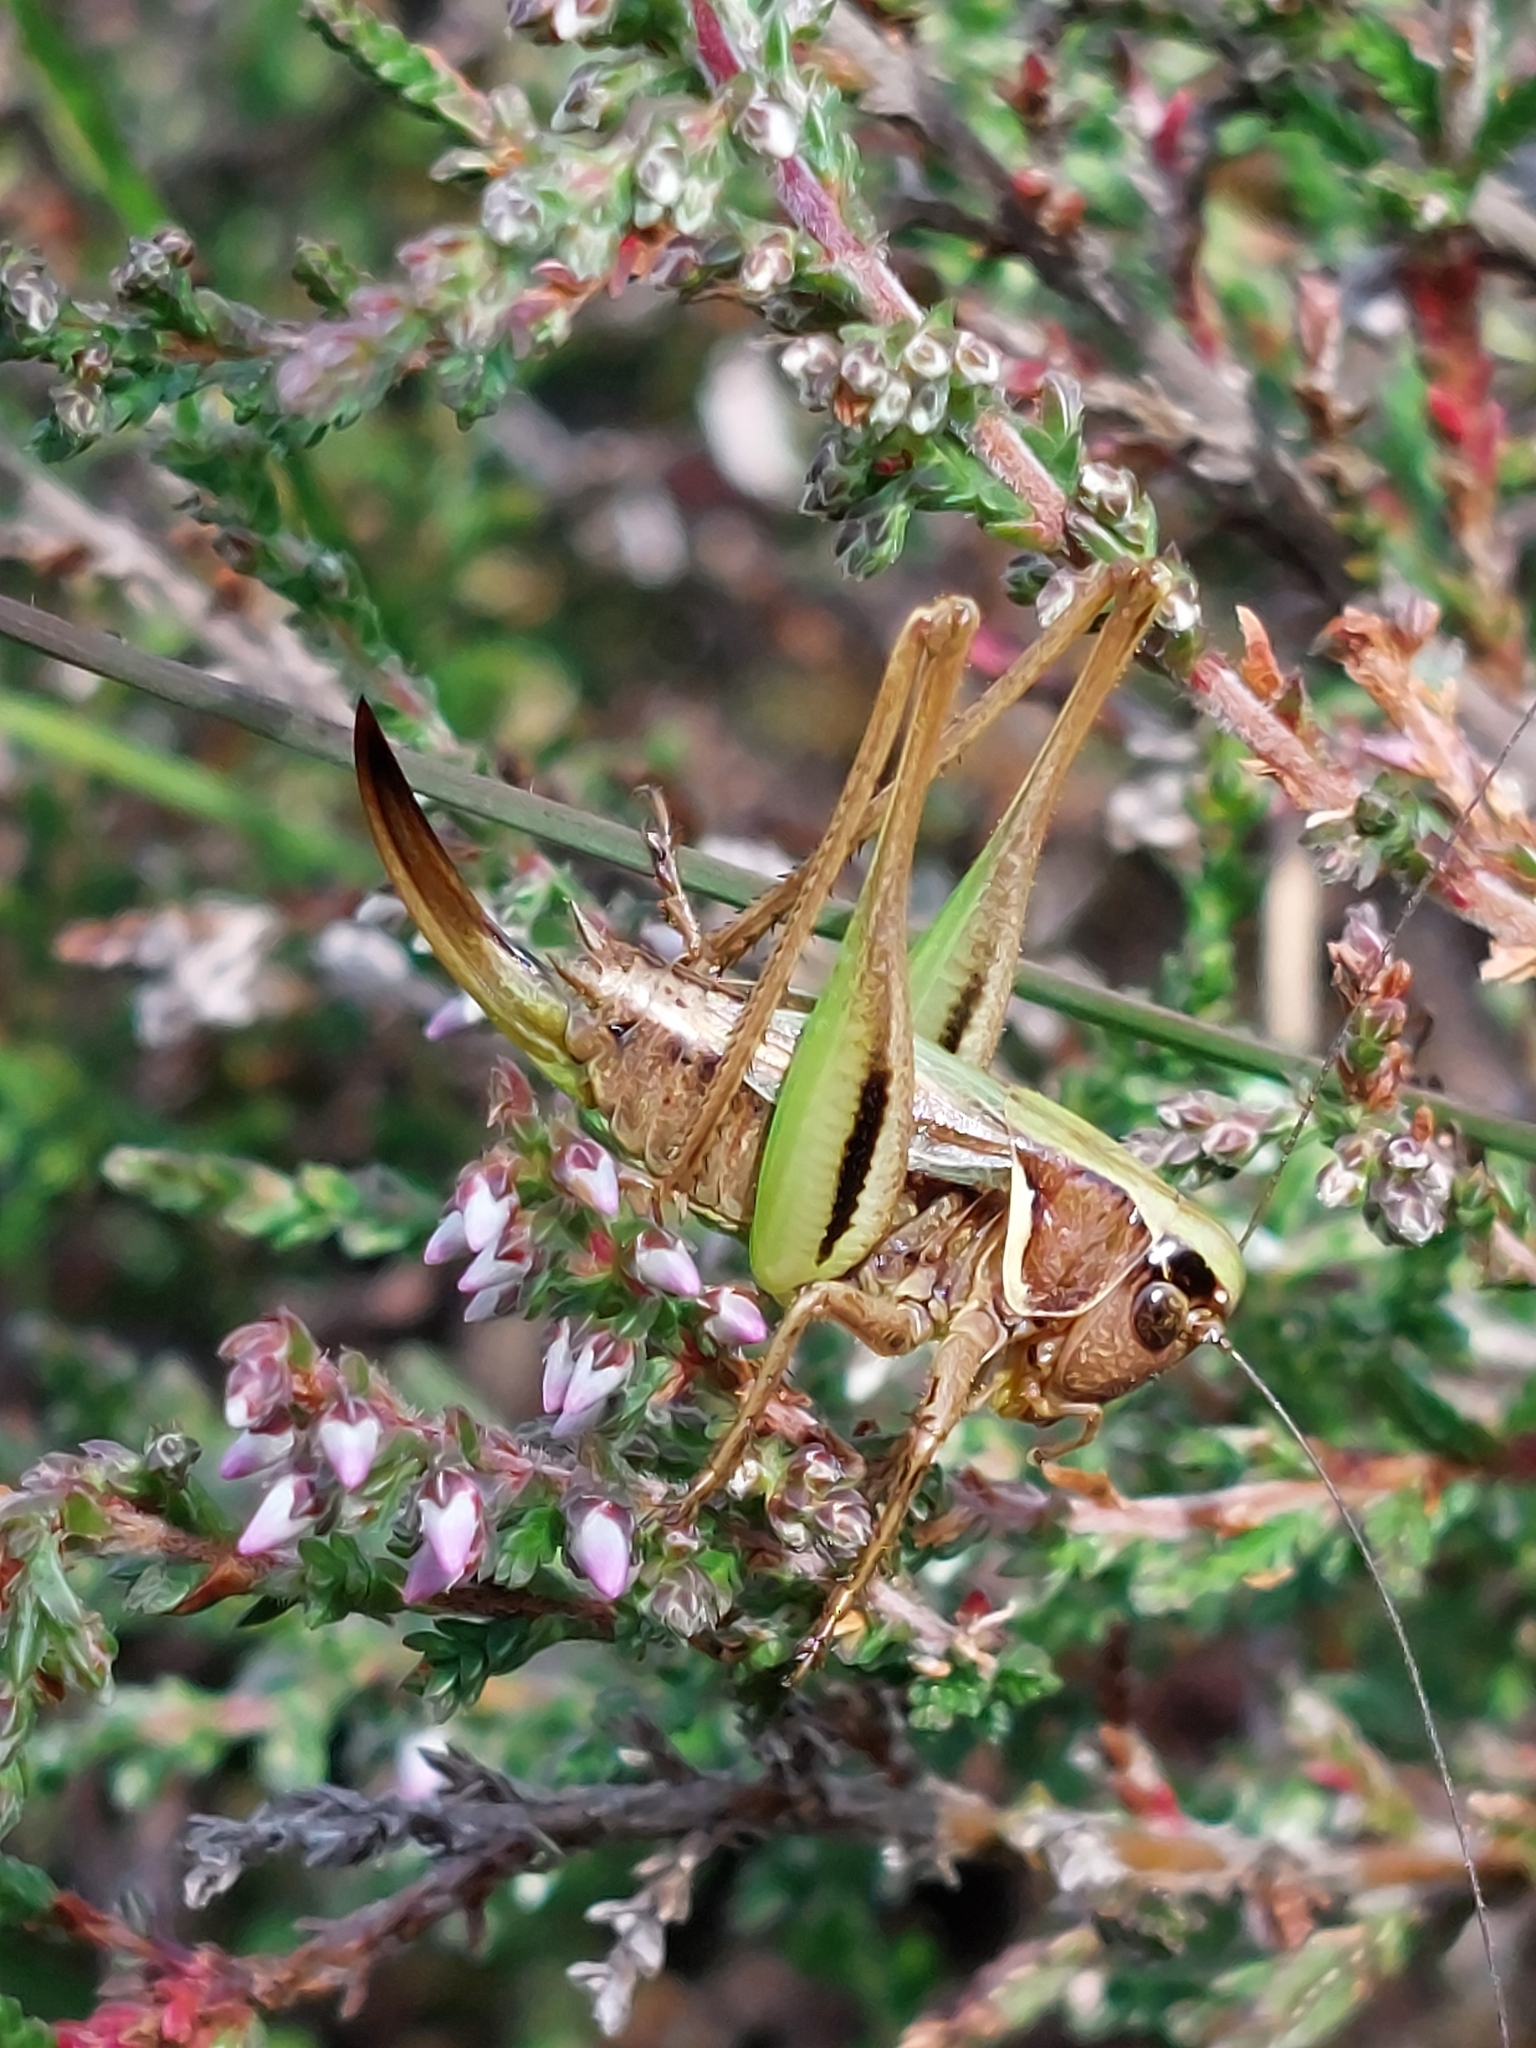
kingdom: Animalia
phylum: Arthropoda
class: Insecta
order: Orthoptera
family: Tettigoniidae
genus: Metrioptera
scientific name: Metrioptera brachyptera
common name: Bog bush-cricket
